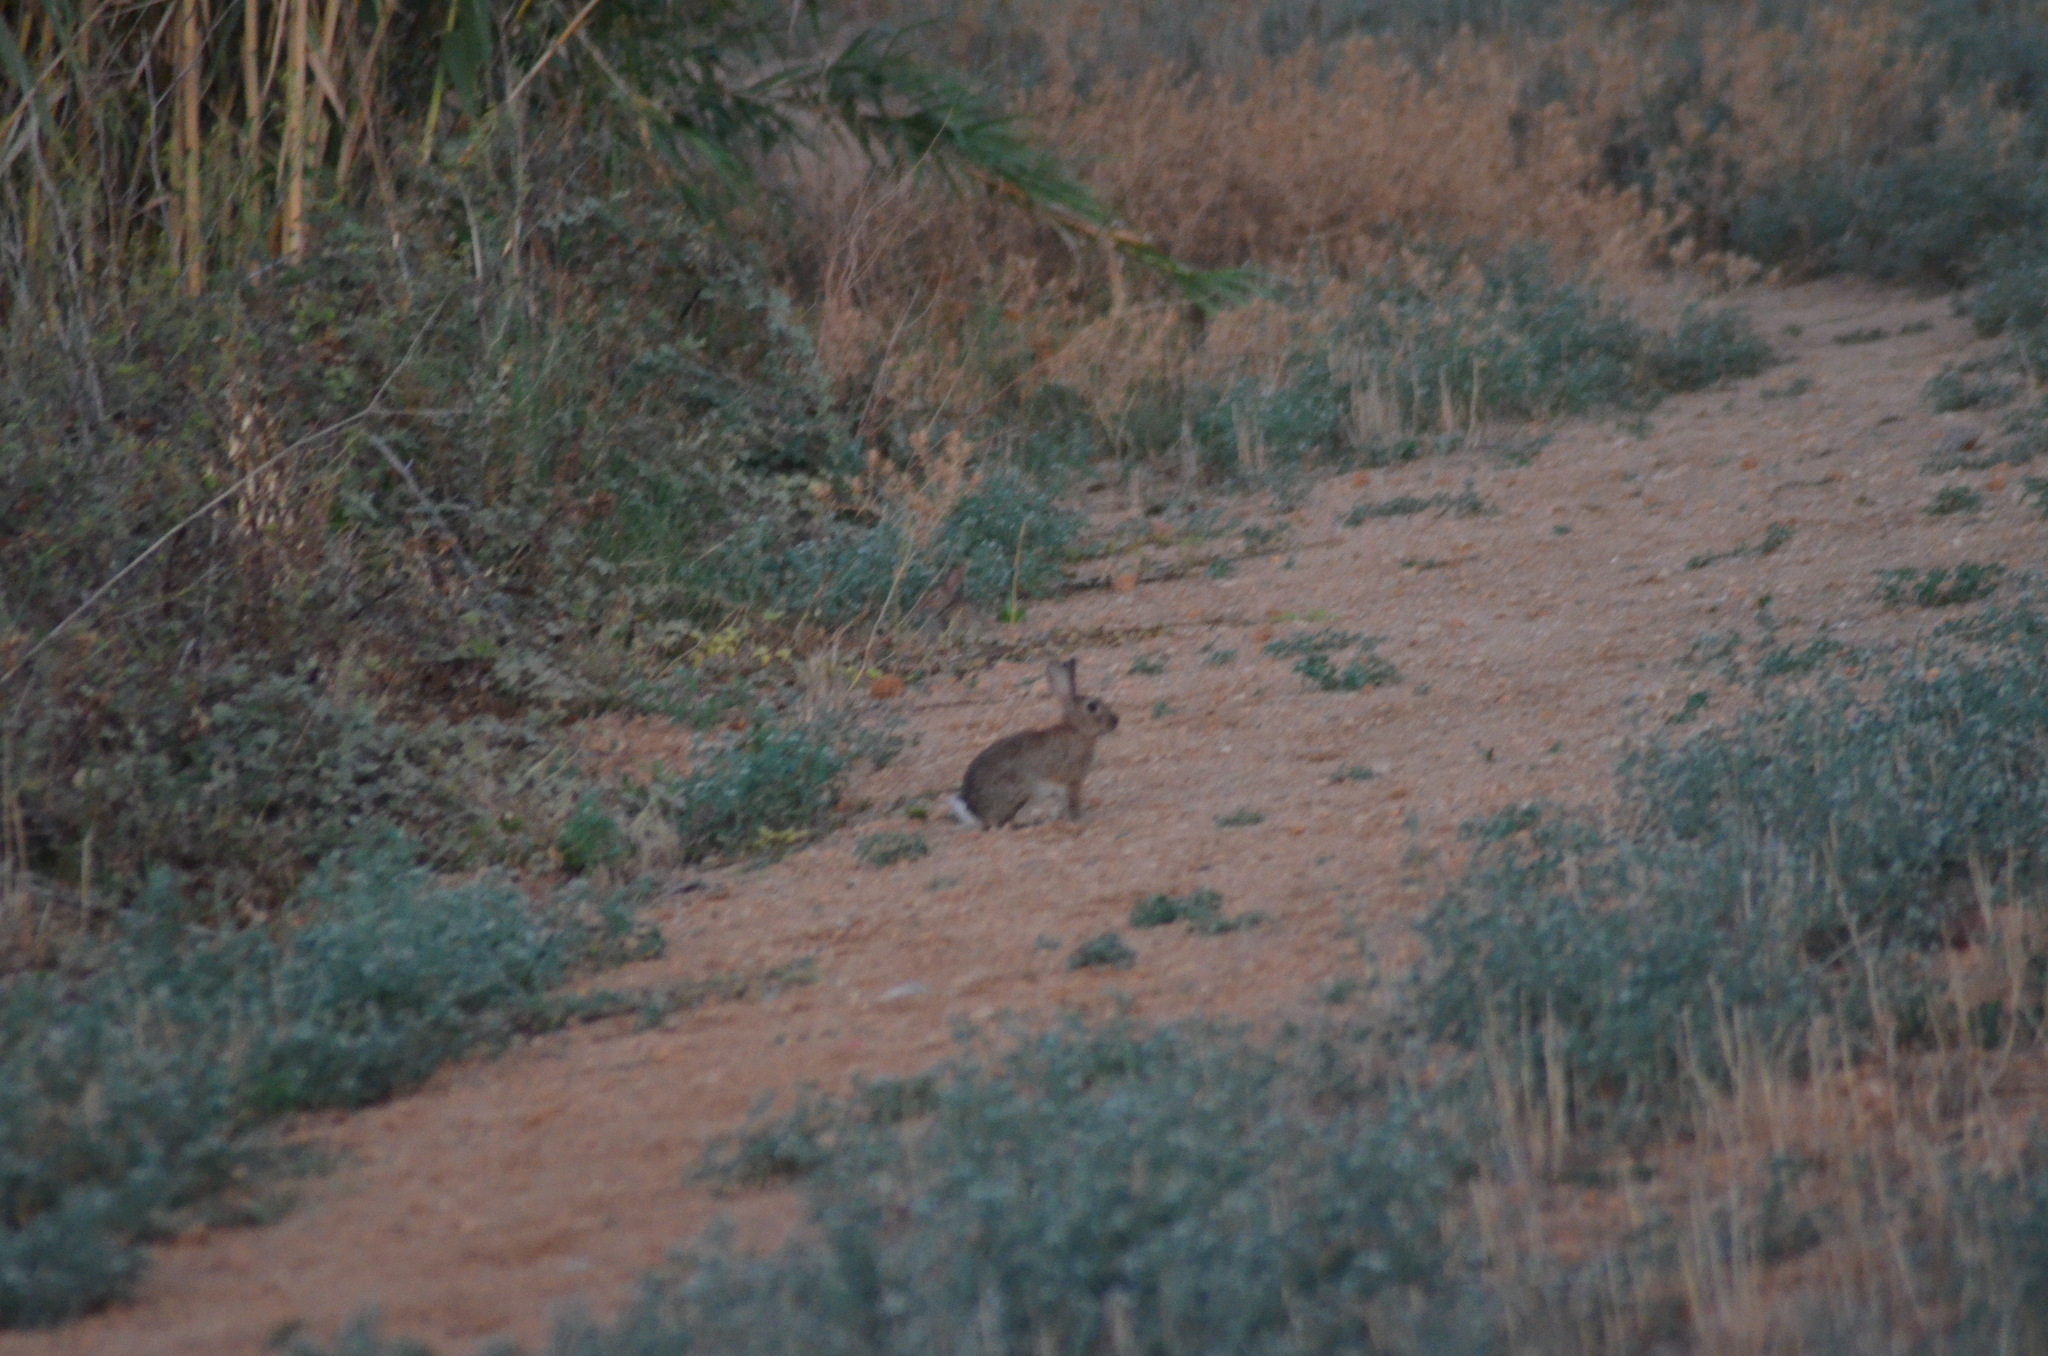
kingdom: Animalia
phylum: Chordata
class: Mammalia
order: Lagomorpha
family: Leporidae
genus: Oryctolagus
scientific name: Oryctolagus cuniculus
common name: European rabbit
